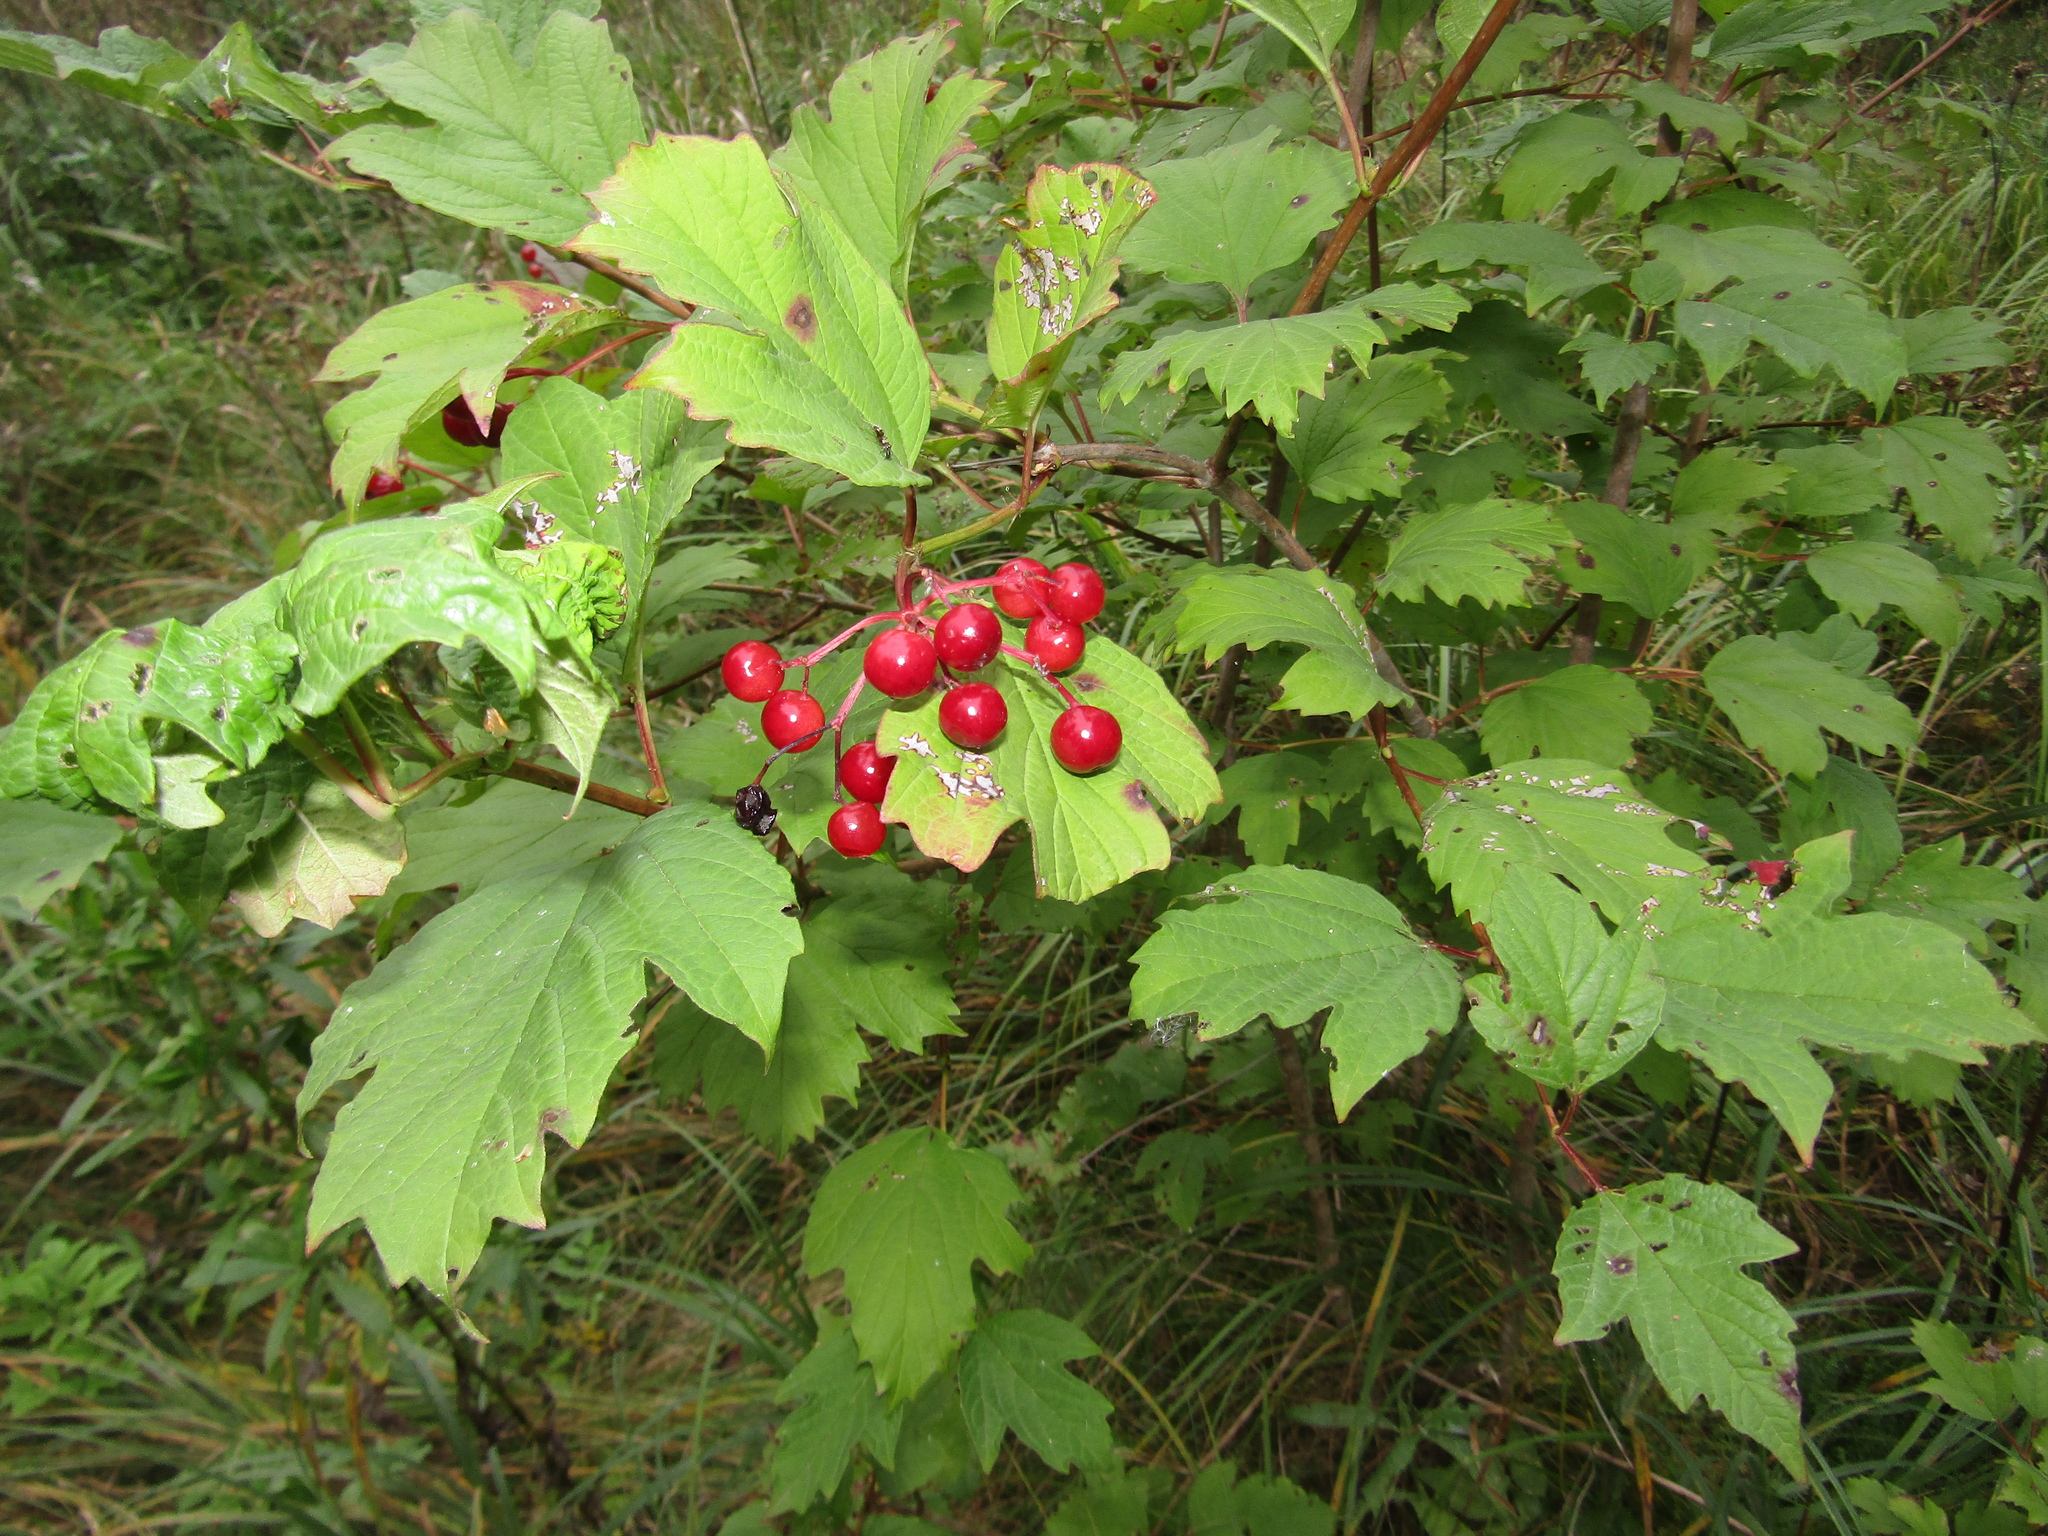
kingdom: Plantae
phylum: Tracheophyta
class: Magnoliopsida
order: Dipsacales
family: Viburnaceae
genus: Viburnum
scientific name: Viburnum opulus
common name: Guelder-rose
